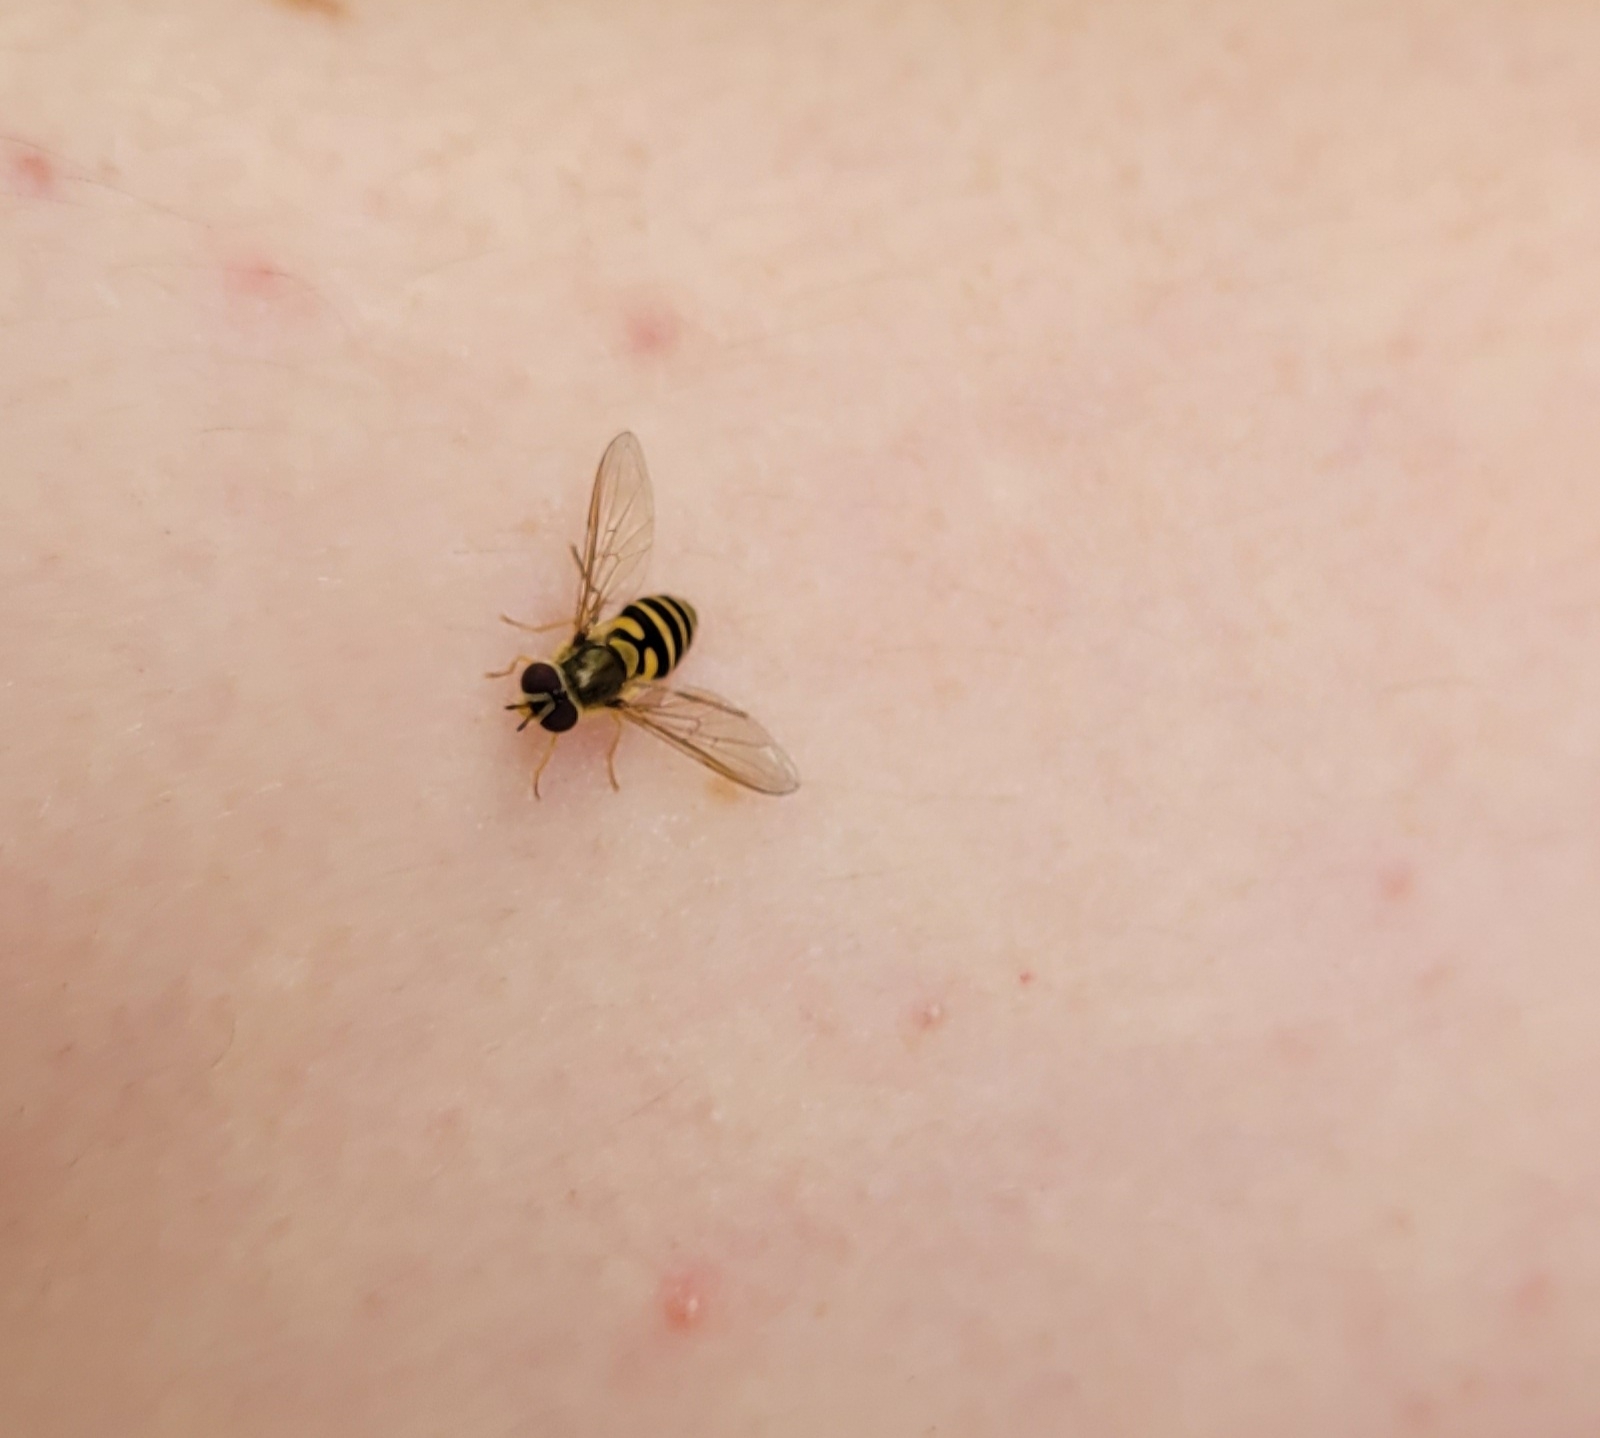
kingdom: Animalia
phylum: Arthropoda
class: Insecta
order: Diptera
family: Syrphidae
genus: Syrphus
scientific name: Syrphus
